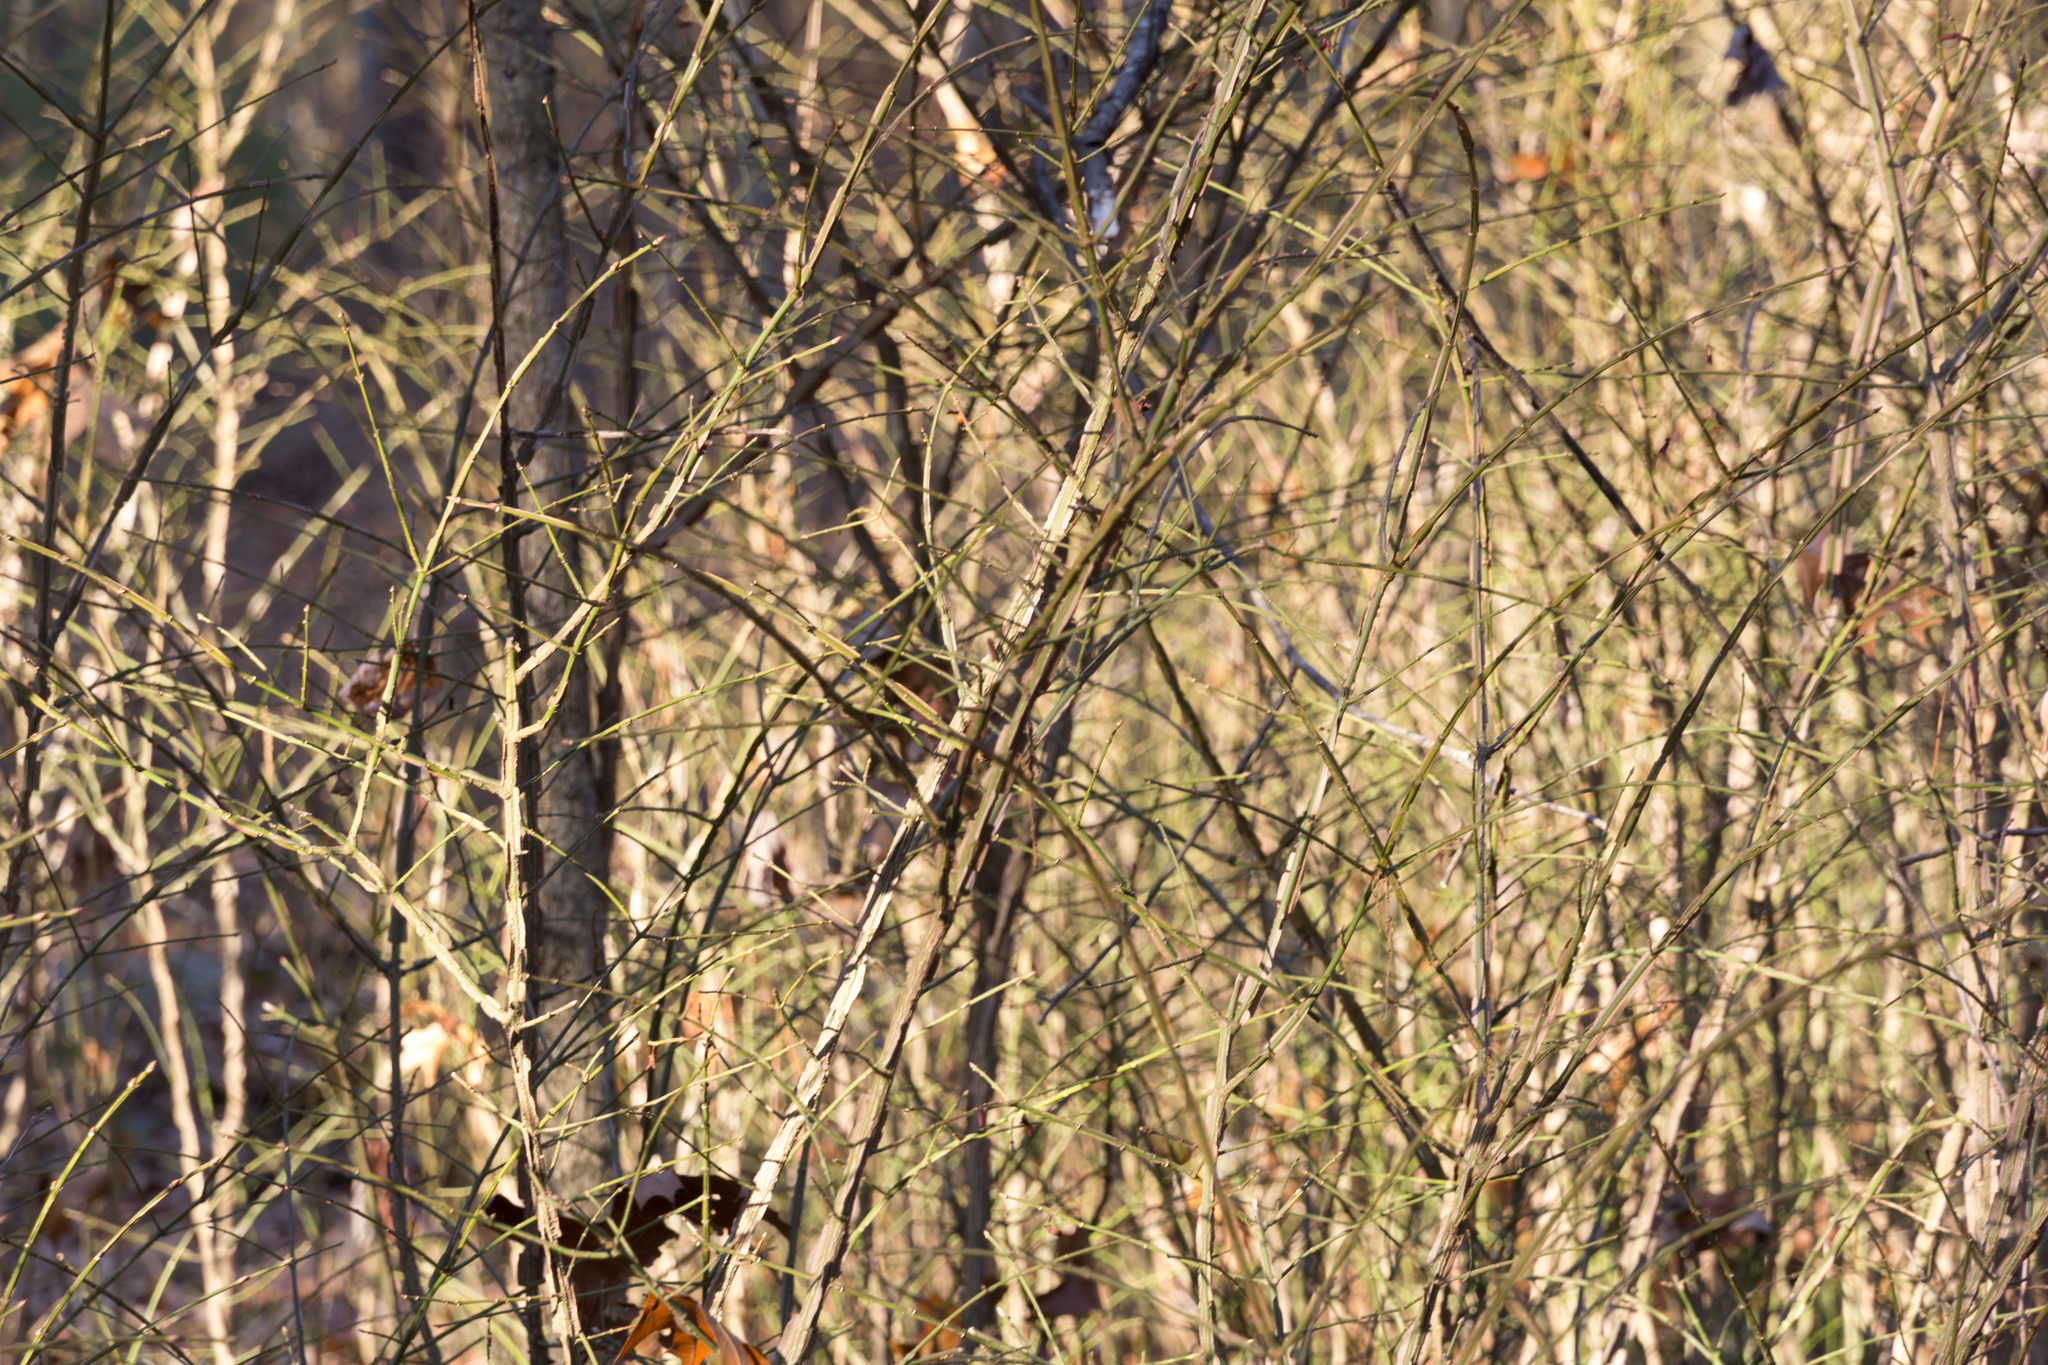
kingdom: Plantae
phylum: Tracheophyta
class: Magnoliopsida
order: Celastrales
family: Celastraceae
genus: Euonymus
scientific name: Euonymus alatus
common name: Winged euonymus
